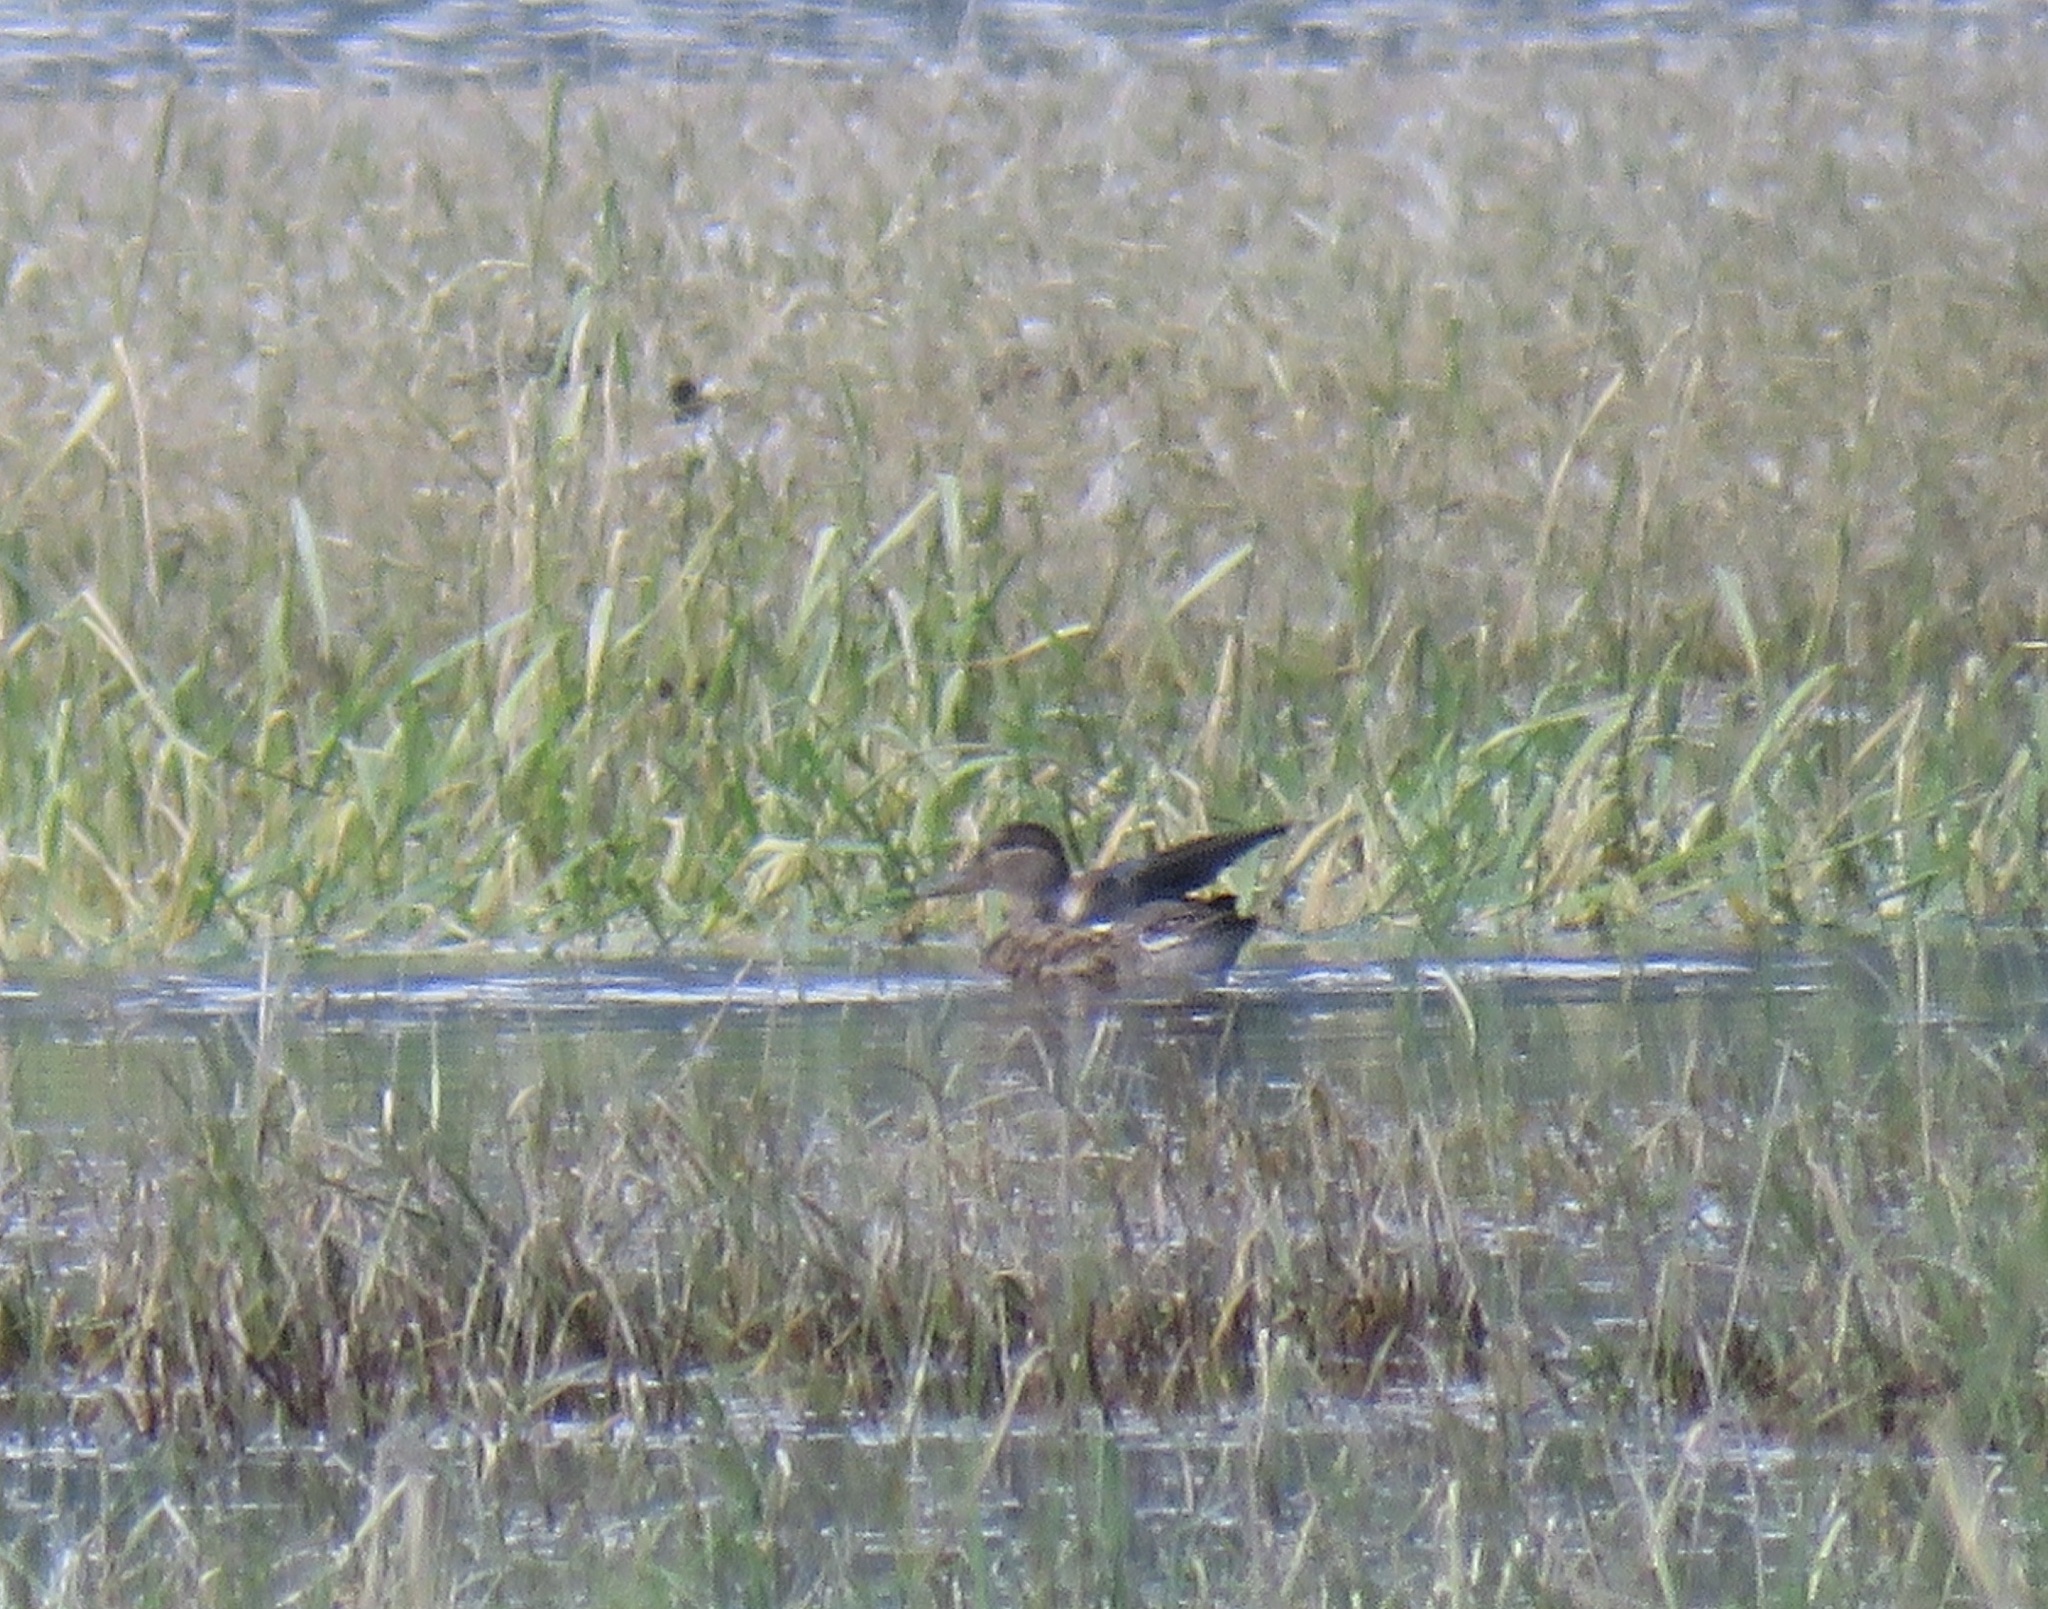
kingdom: Animalia
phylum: Chordata
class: Aves
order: Anseriformes
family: Anatidae
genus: Anas
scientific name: Anas crecca
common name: Eurasian teal
